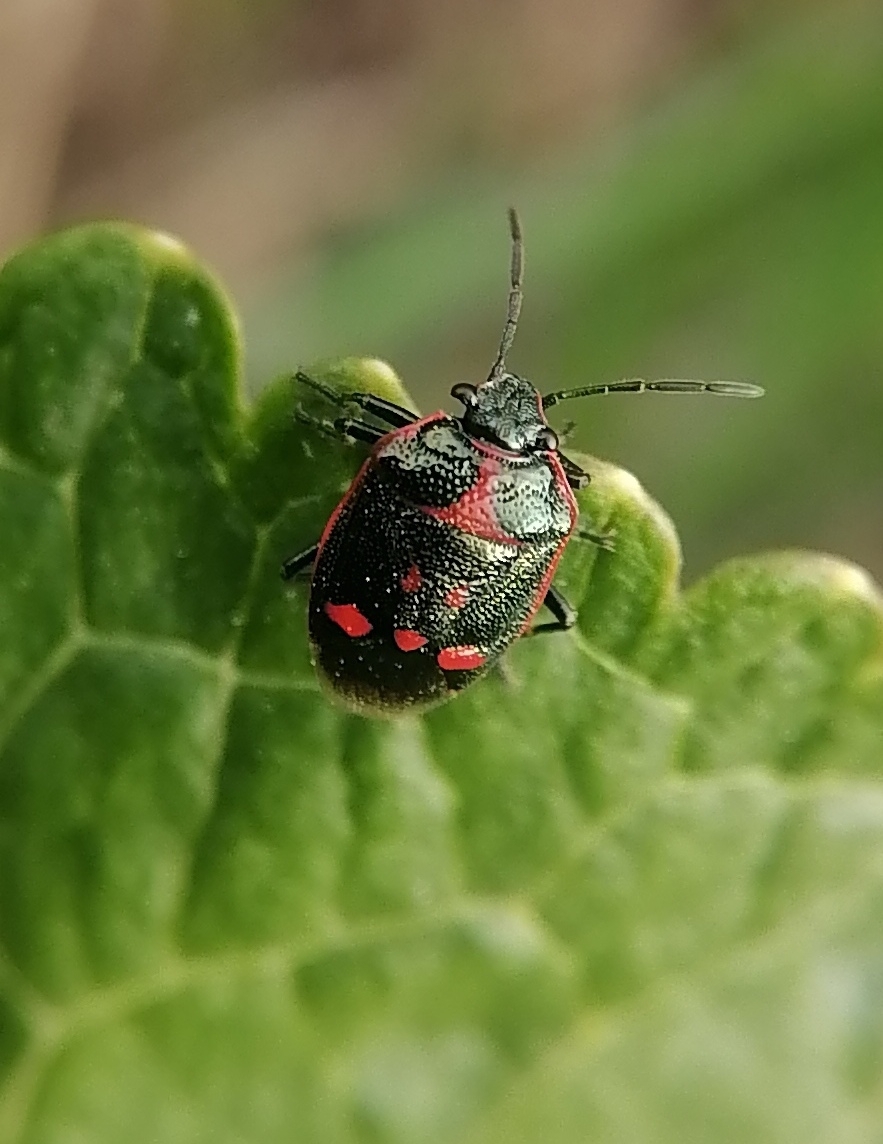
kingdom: Animalia
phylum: Arthropoda
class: Insecta
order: Hemiptera
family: Pentatomidae
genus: Eurydema
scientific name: Eurydema oleracea
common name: Cabbage bug
